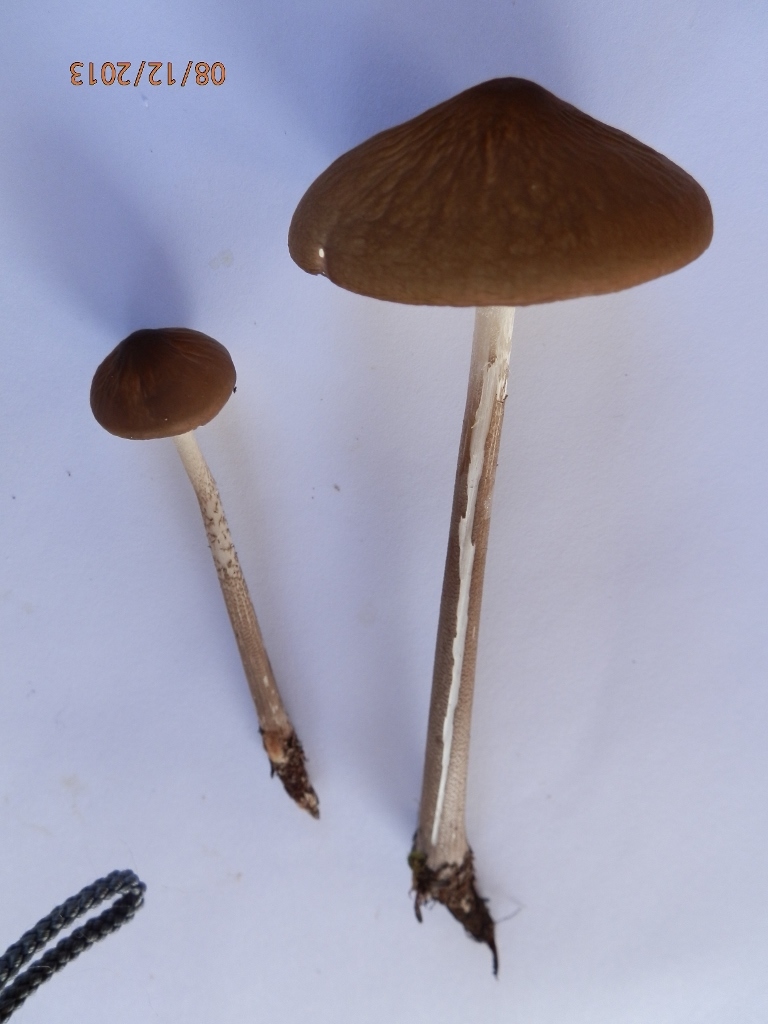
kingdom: Fungi
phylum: Basidiomycota
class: Agaricomycetes
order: Agaricales
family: Physalacriaceae
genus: Hymenopellis
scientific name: Hymenopellis furfuracea
